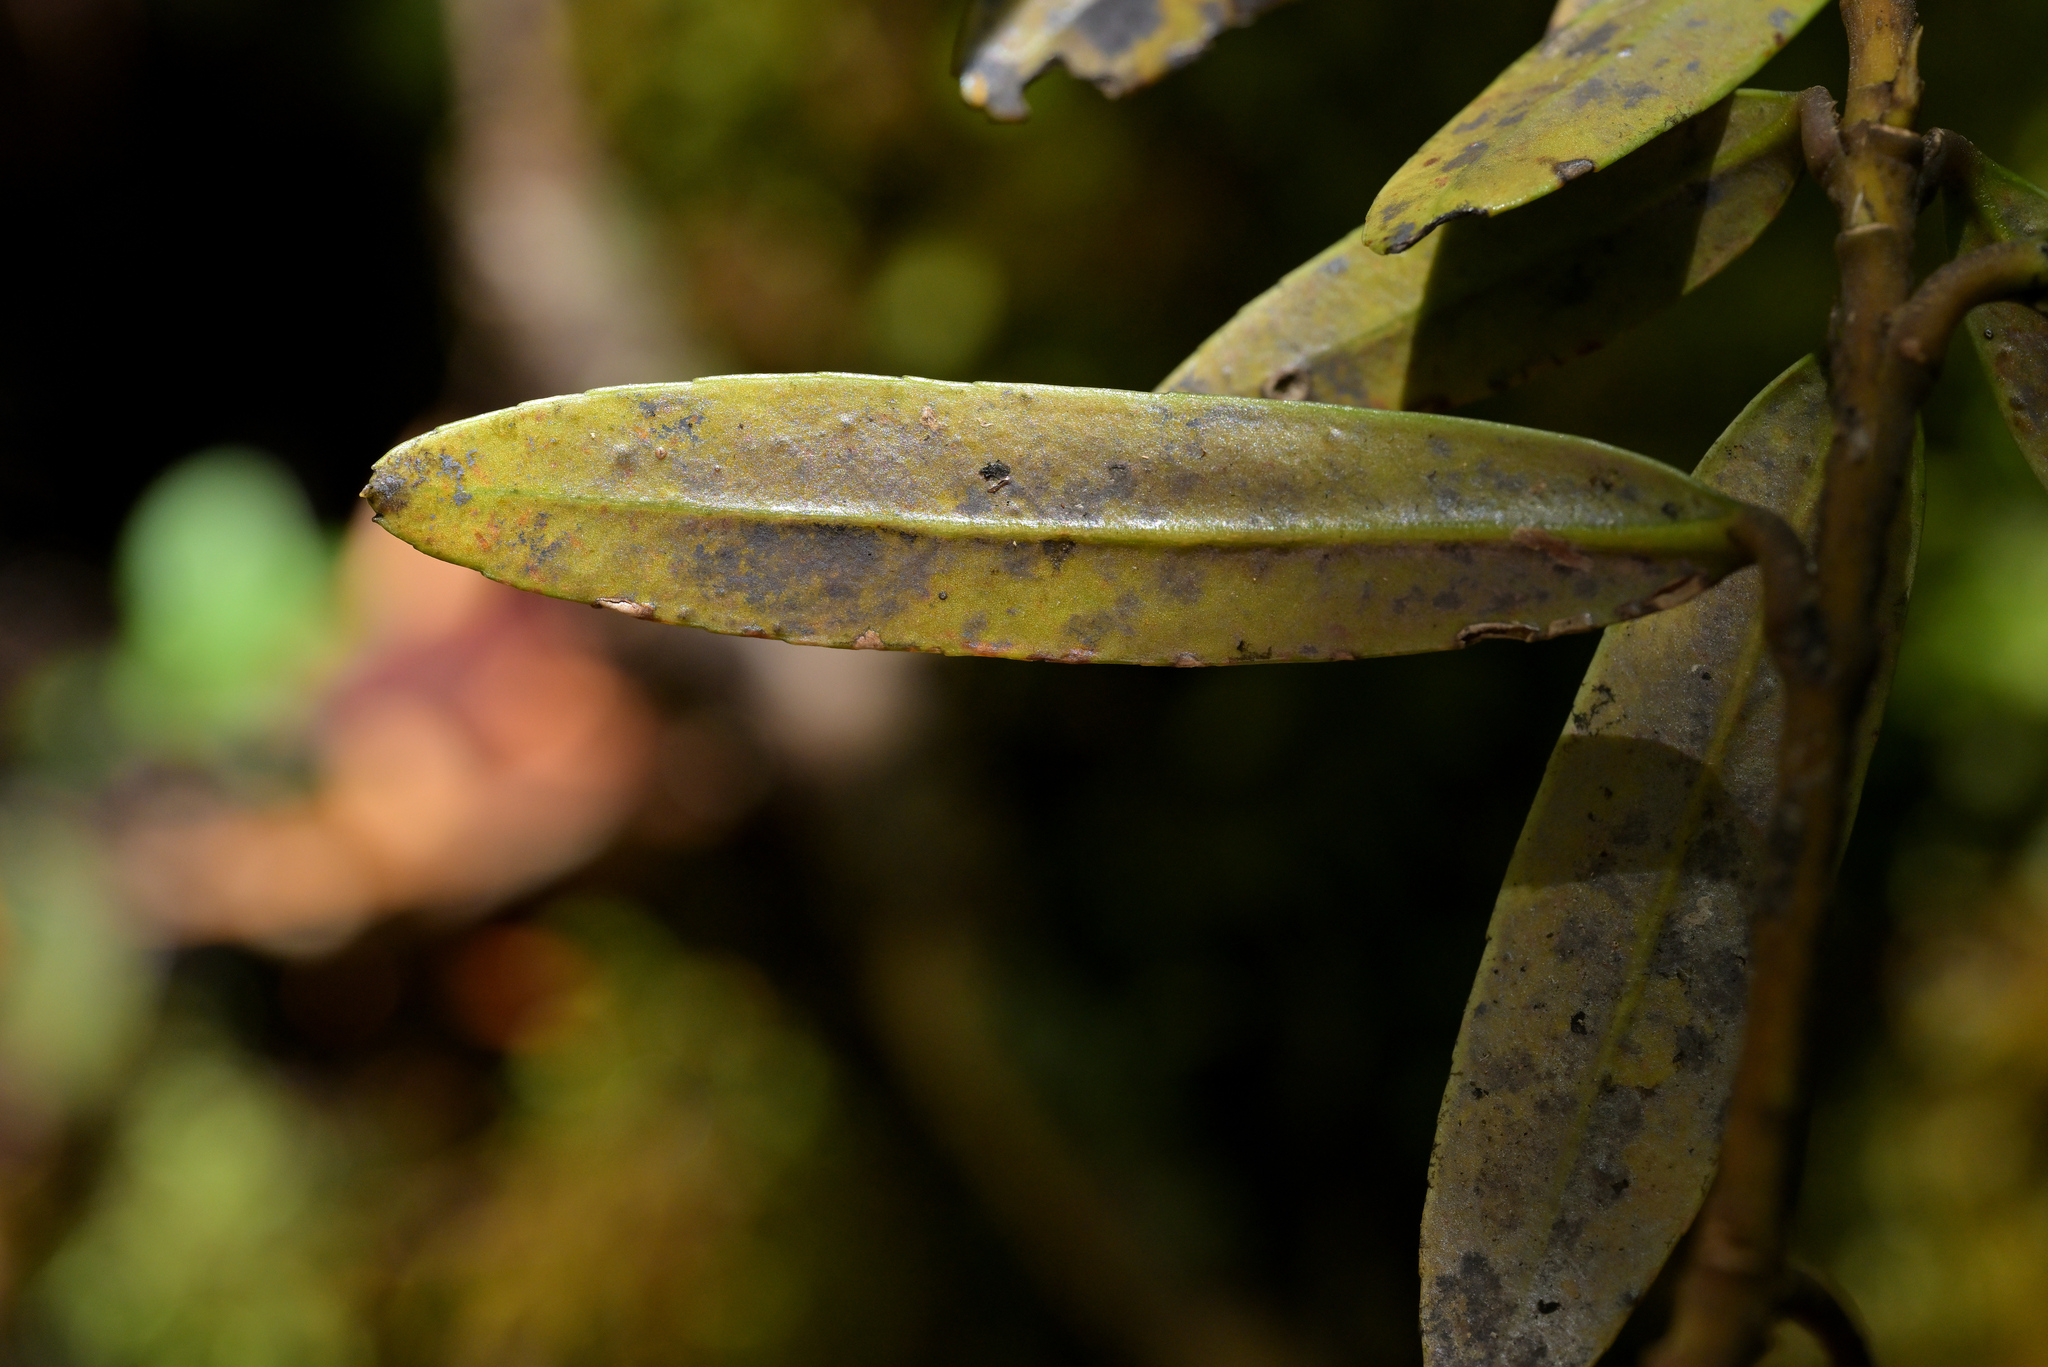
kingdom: Plantae
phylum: Tracheophyta
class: Magnoliopsida
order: Apiales
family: Araliaceae
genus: Pseudopanax
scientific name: Pseudopanax linearis
